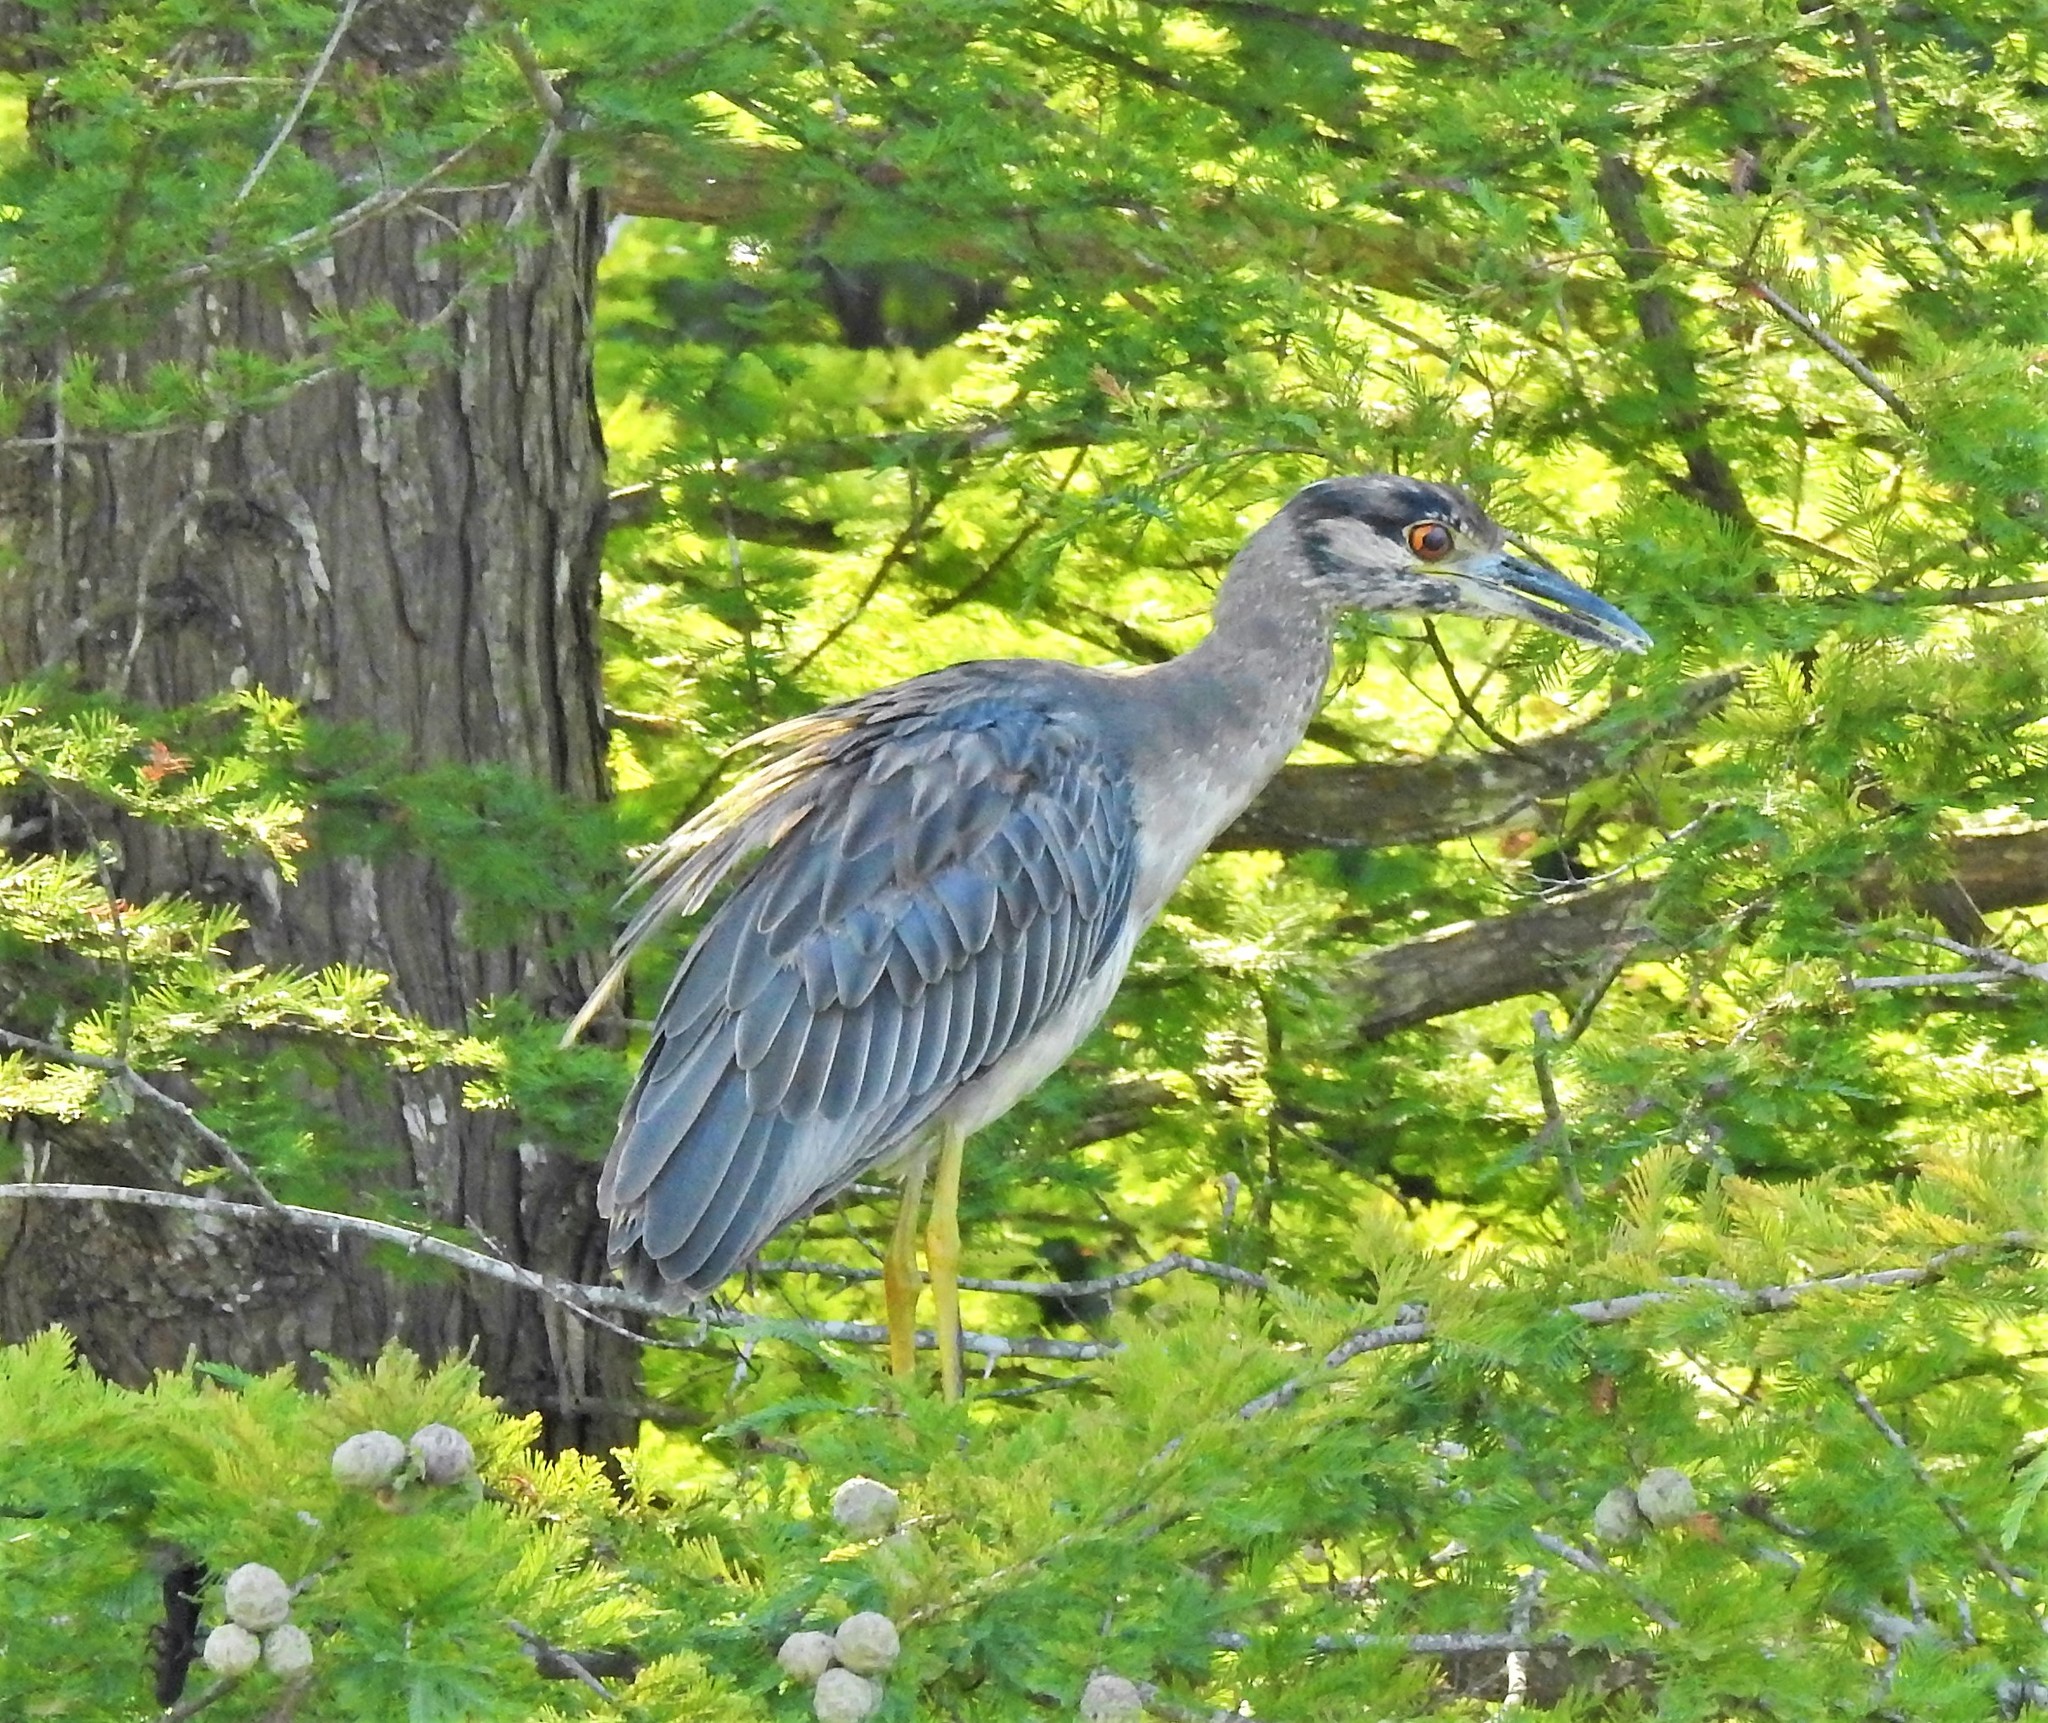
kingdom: Animalia
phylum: Chordata
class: Aves
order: Pelecaniformes
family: Ardeidae
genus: Nyctanassa
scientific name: Nyctanassa violacea
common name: Yellow-crowned night heron
